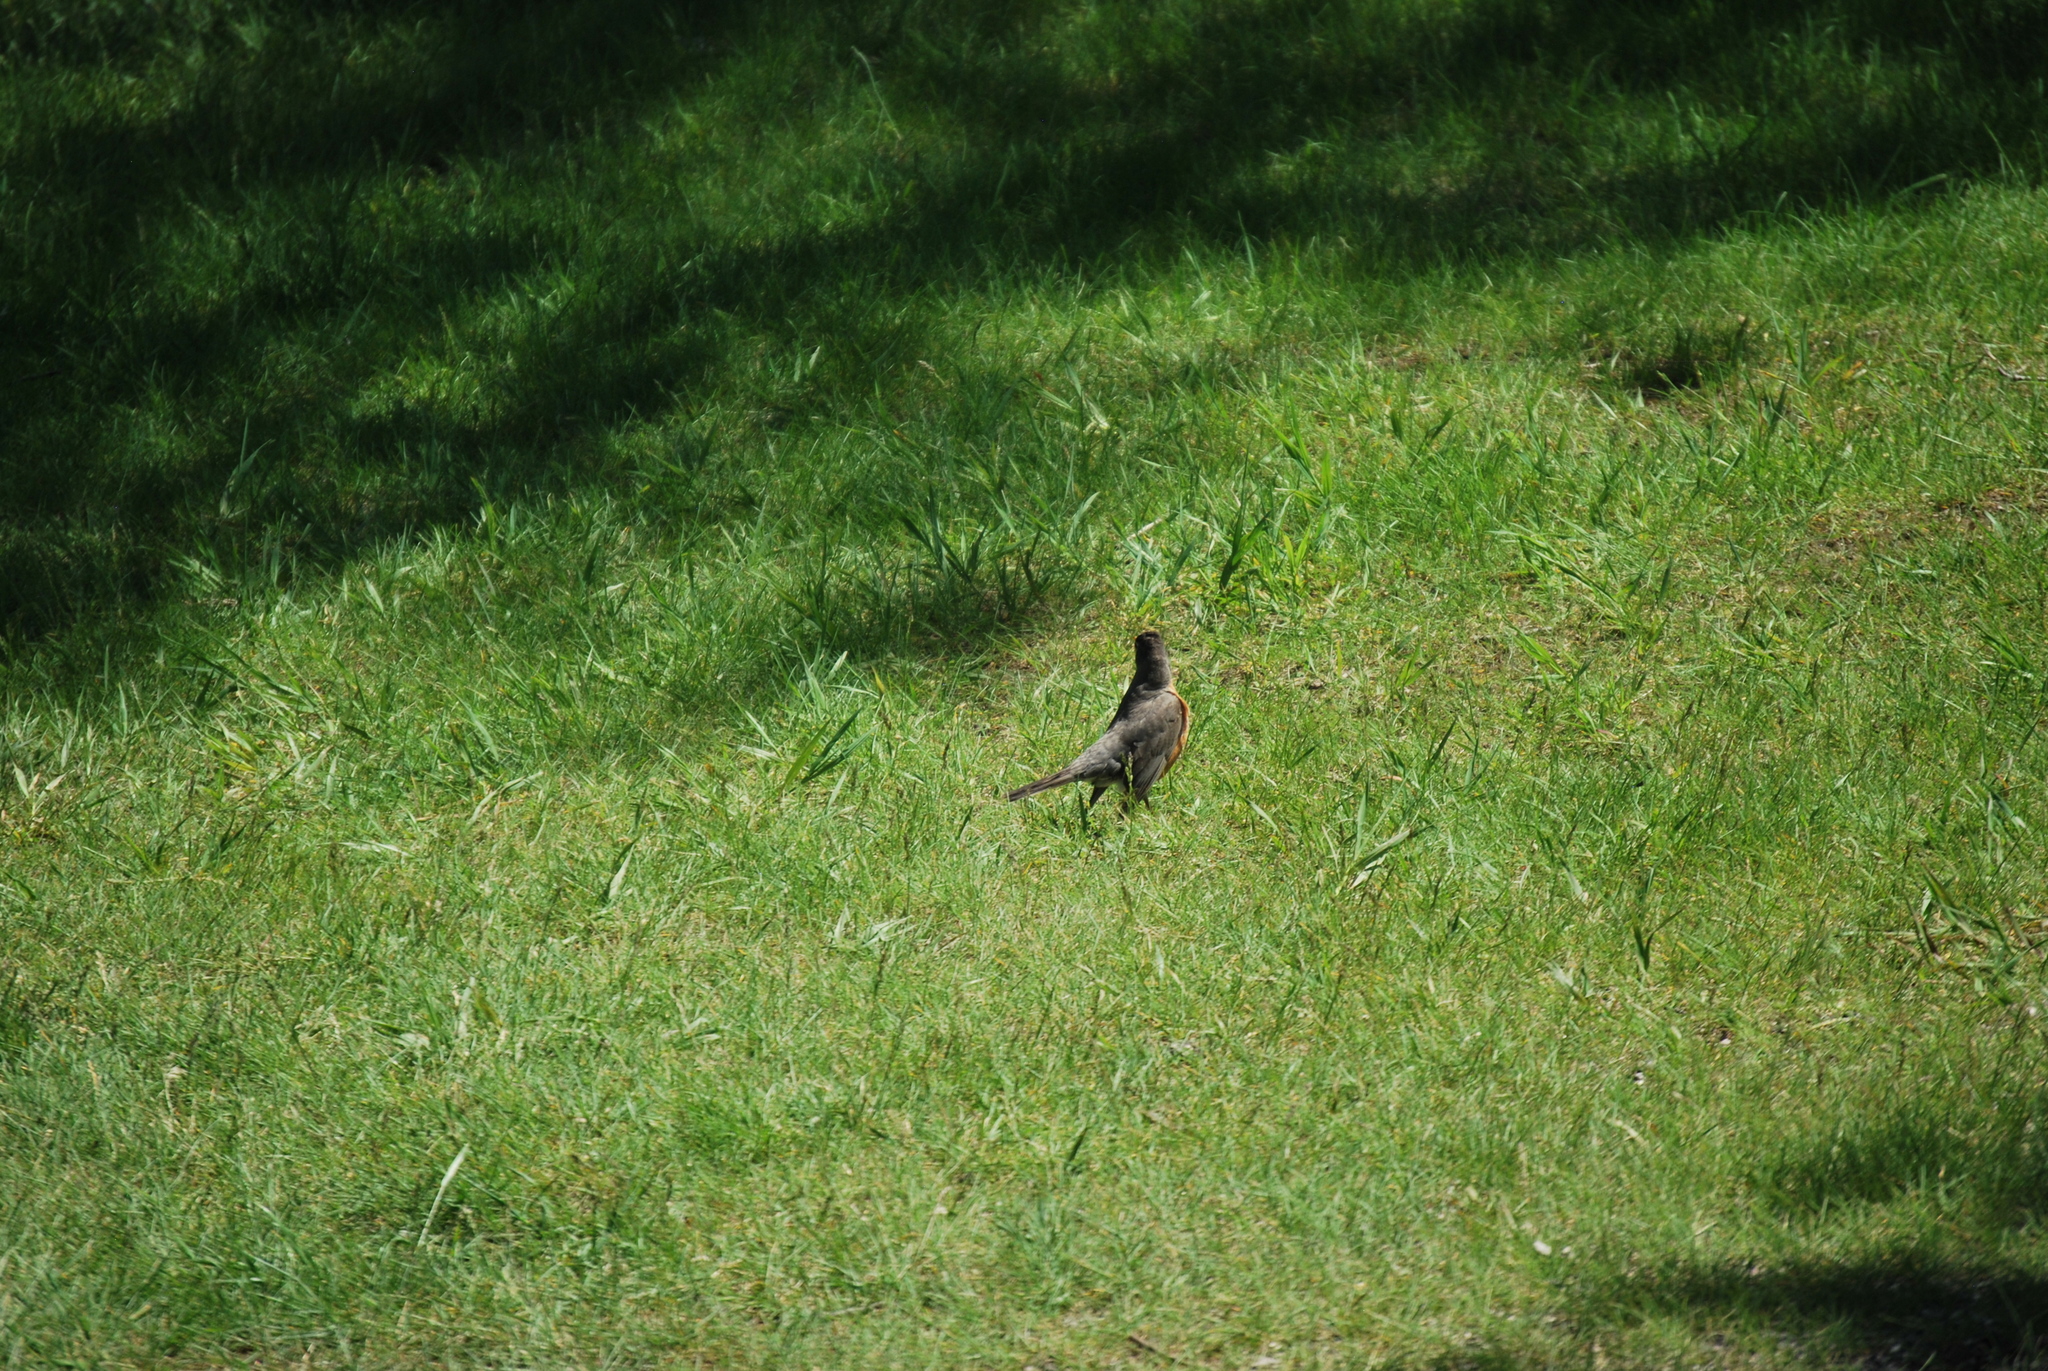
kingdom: Animalia
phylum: Chordata
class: Aves
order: Passeriformes
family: Turdidae
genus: Turdus
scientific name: Turdus migratorius
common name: American robin
